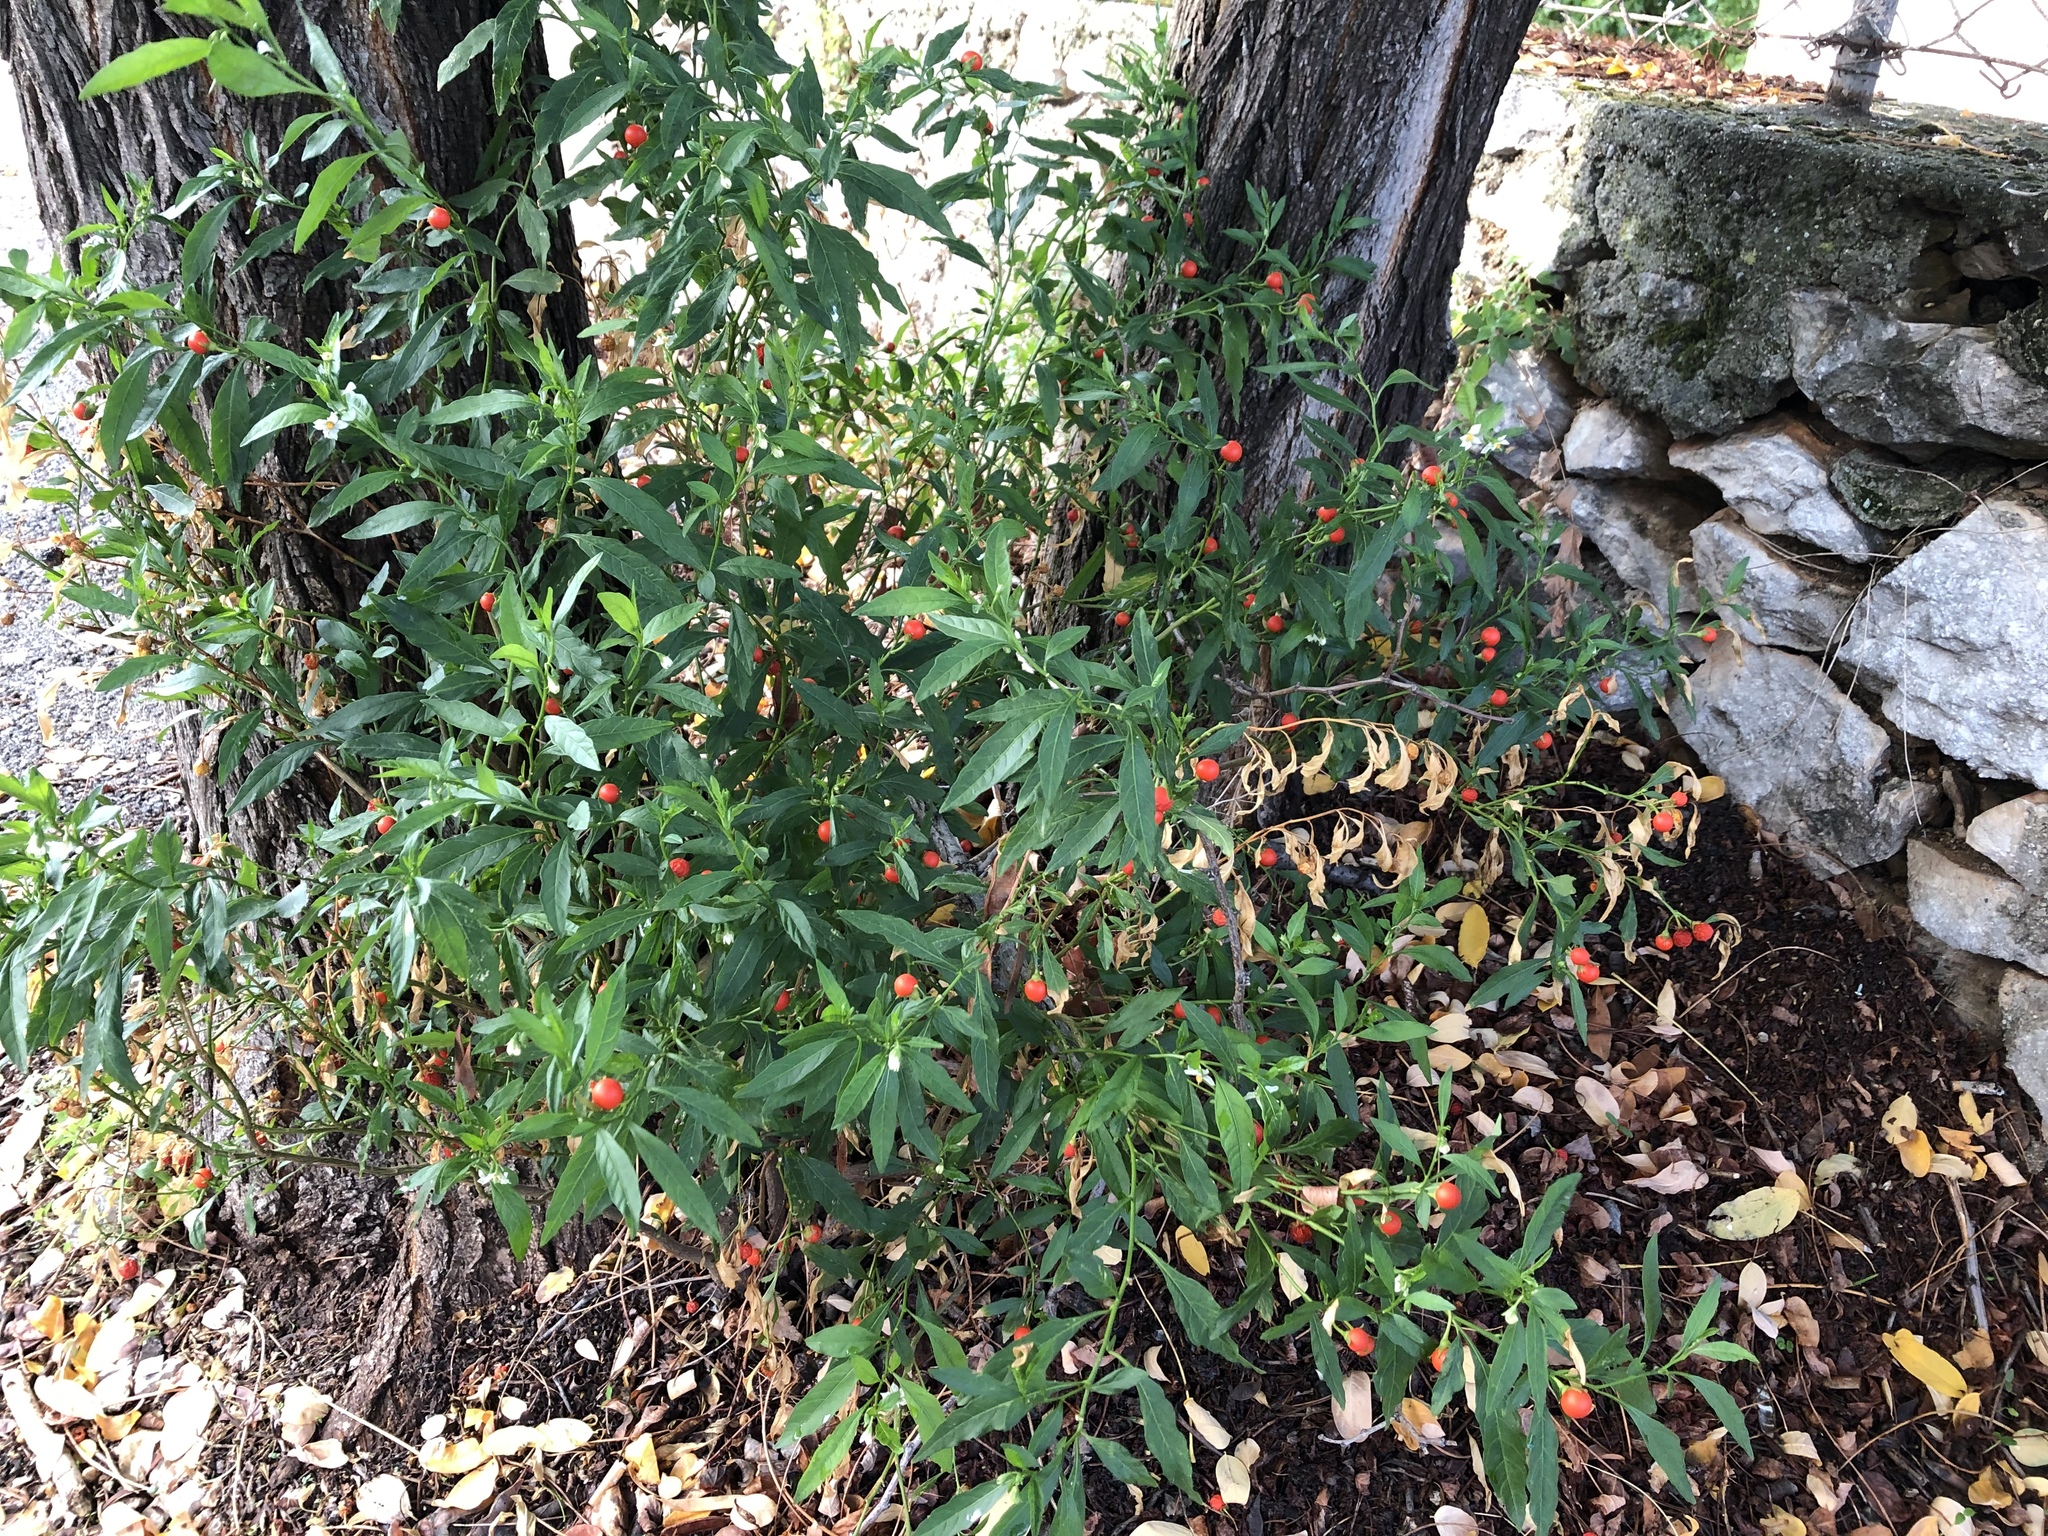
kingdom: Plantae
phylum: Tracheophyta
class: Magnoliopsida
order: Solanales
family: Solanaceae
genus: Solanum
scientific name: Solanum pseudocapsicum
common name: Jerusalem cherry
